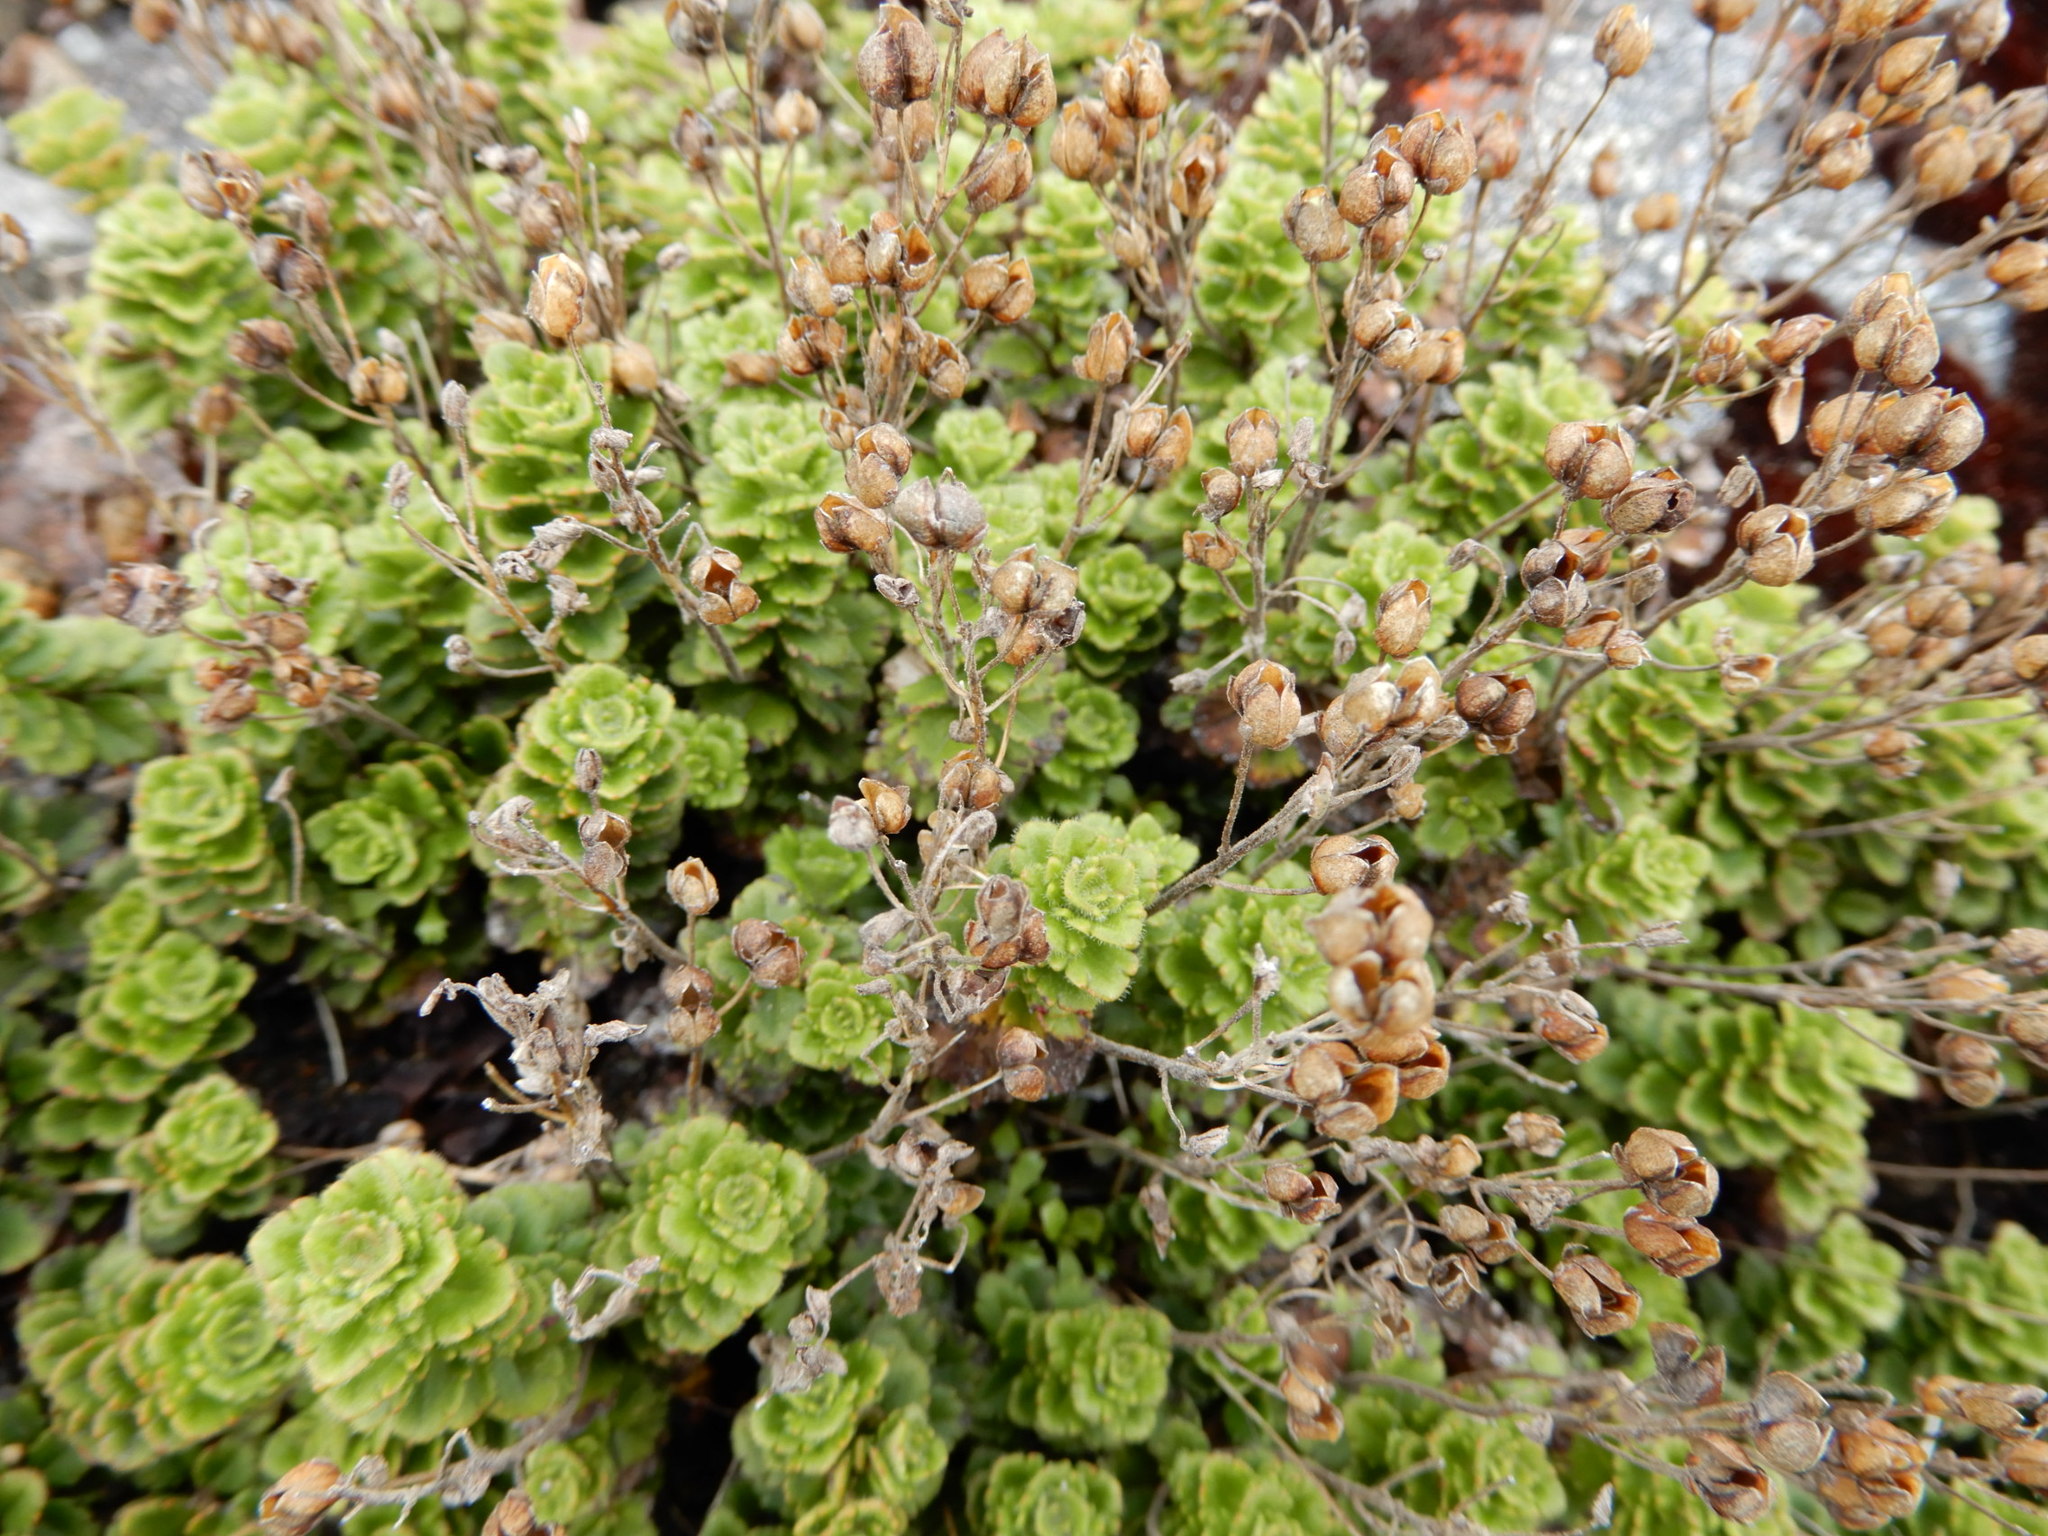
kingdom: Plantae
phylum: Tracheophyta
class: Magnoliopsida
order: Lamiales
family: Plantaginaceae
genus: Veronica
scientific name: Veronica hookeriana
